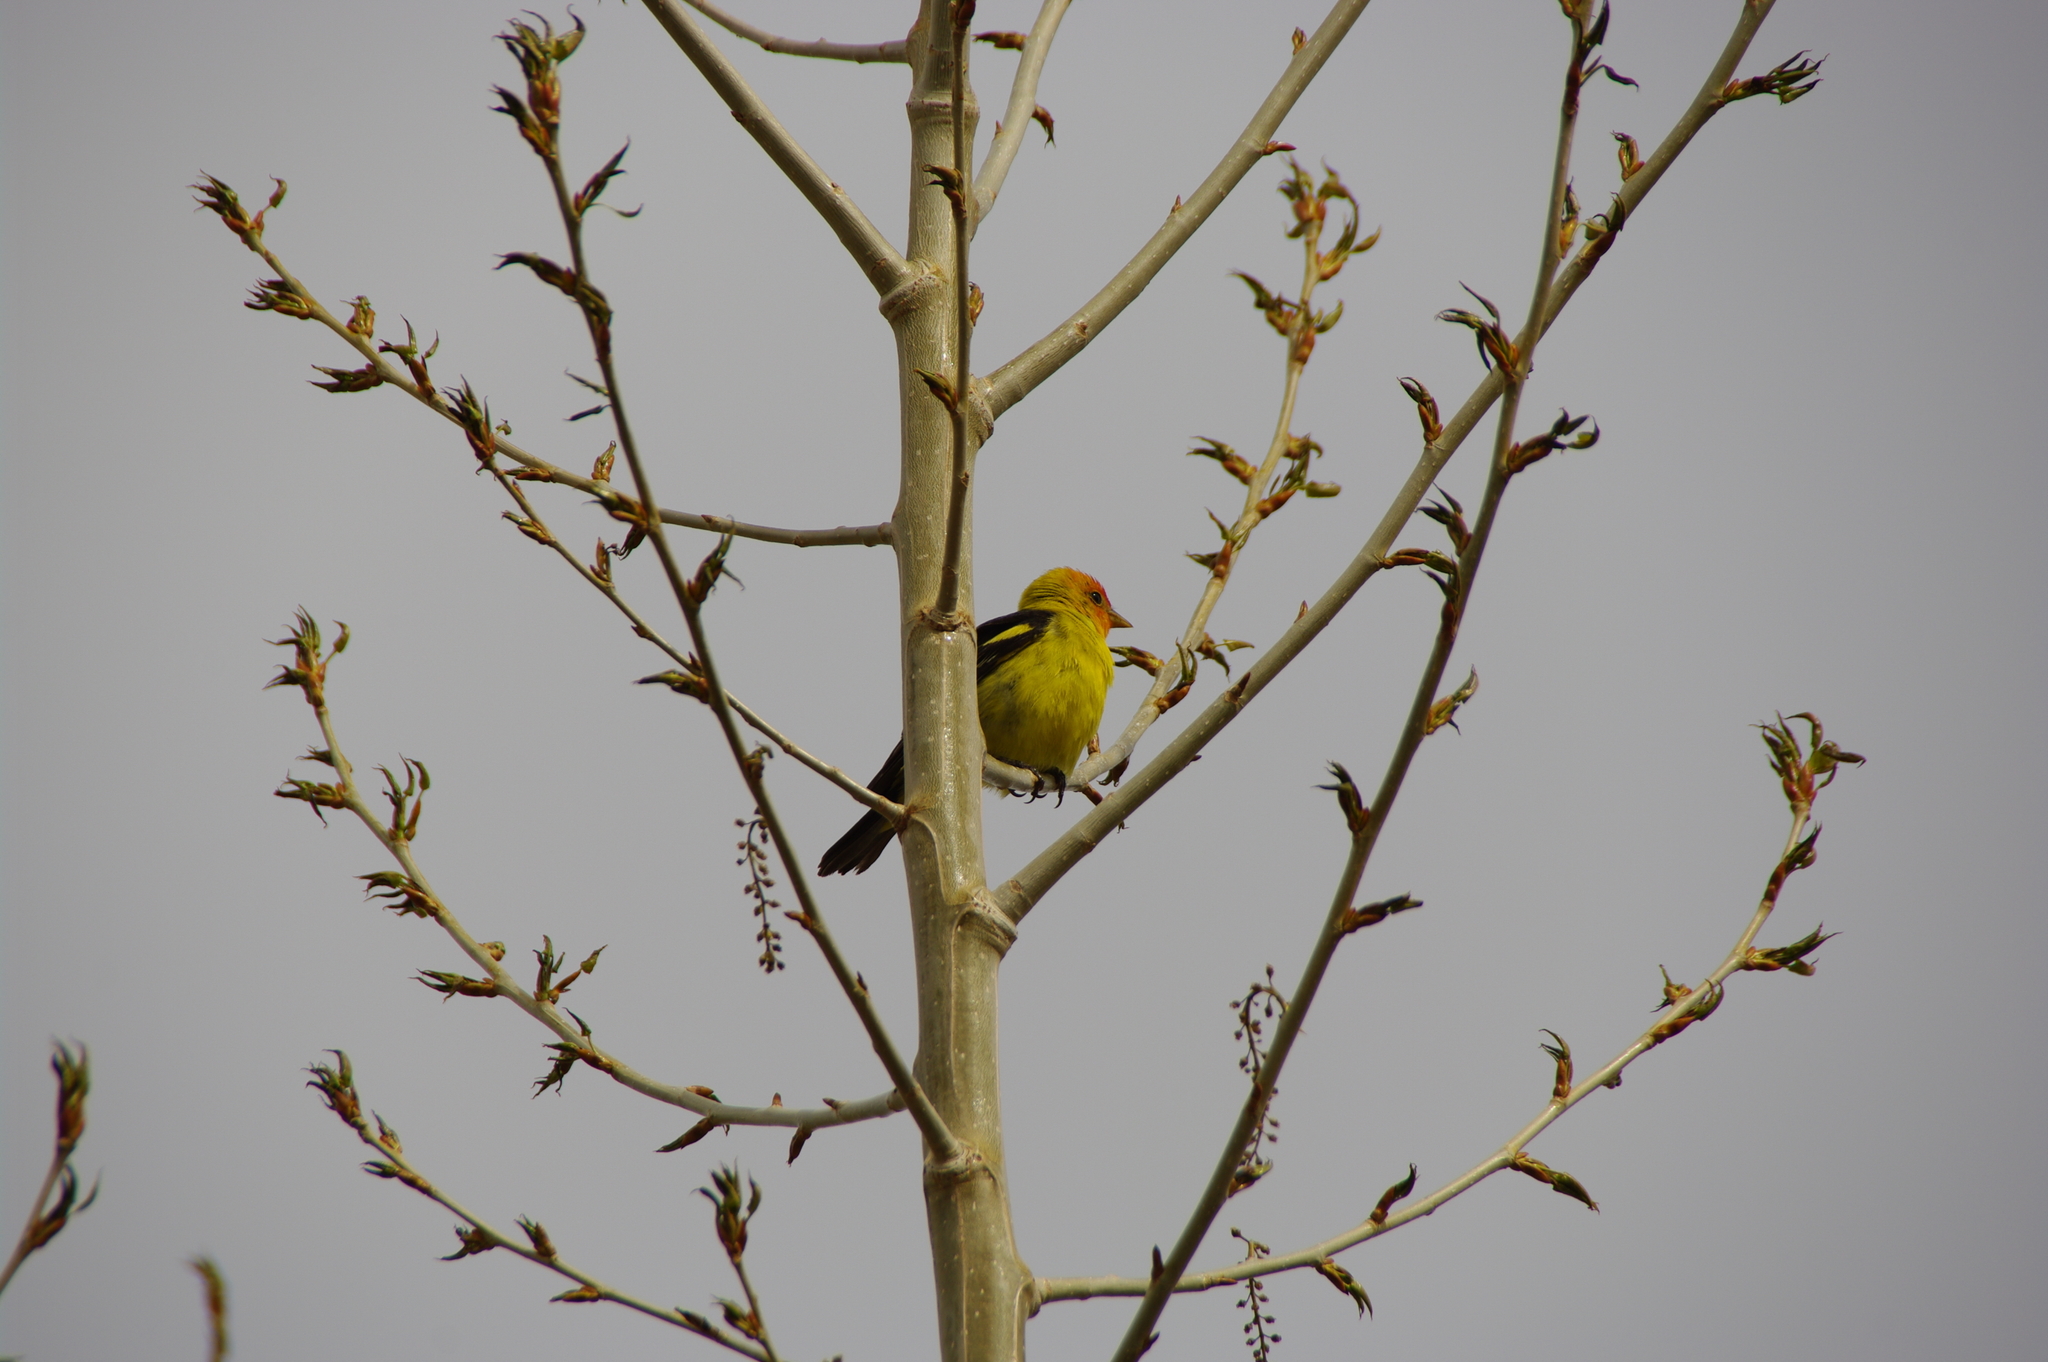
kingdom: Animalia
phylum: Chordata
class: Aves
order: Passeriformes
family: Cardinalidae
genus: Piranga
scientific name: Piranga ludoviciana
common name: Western tanager
